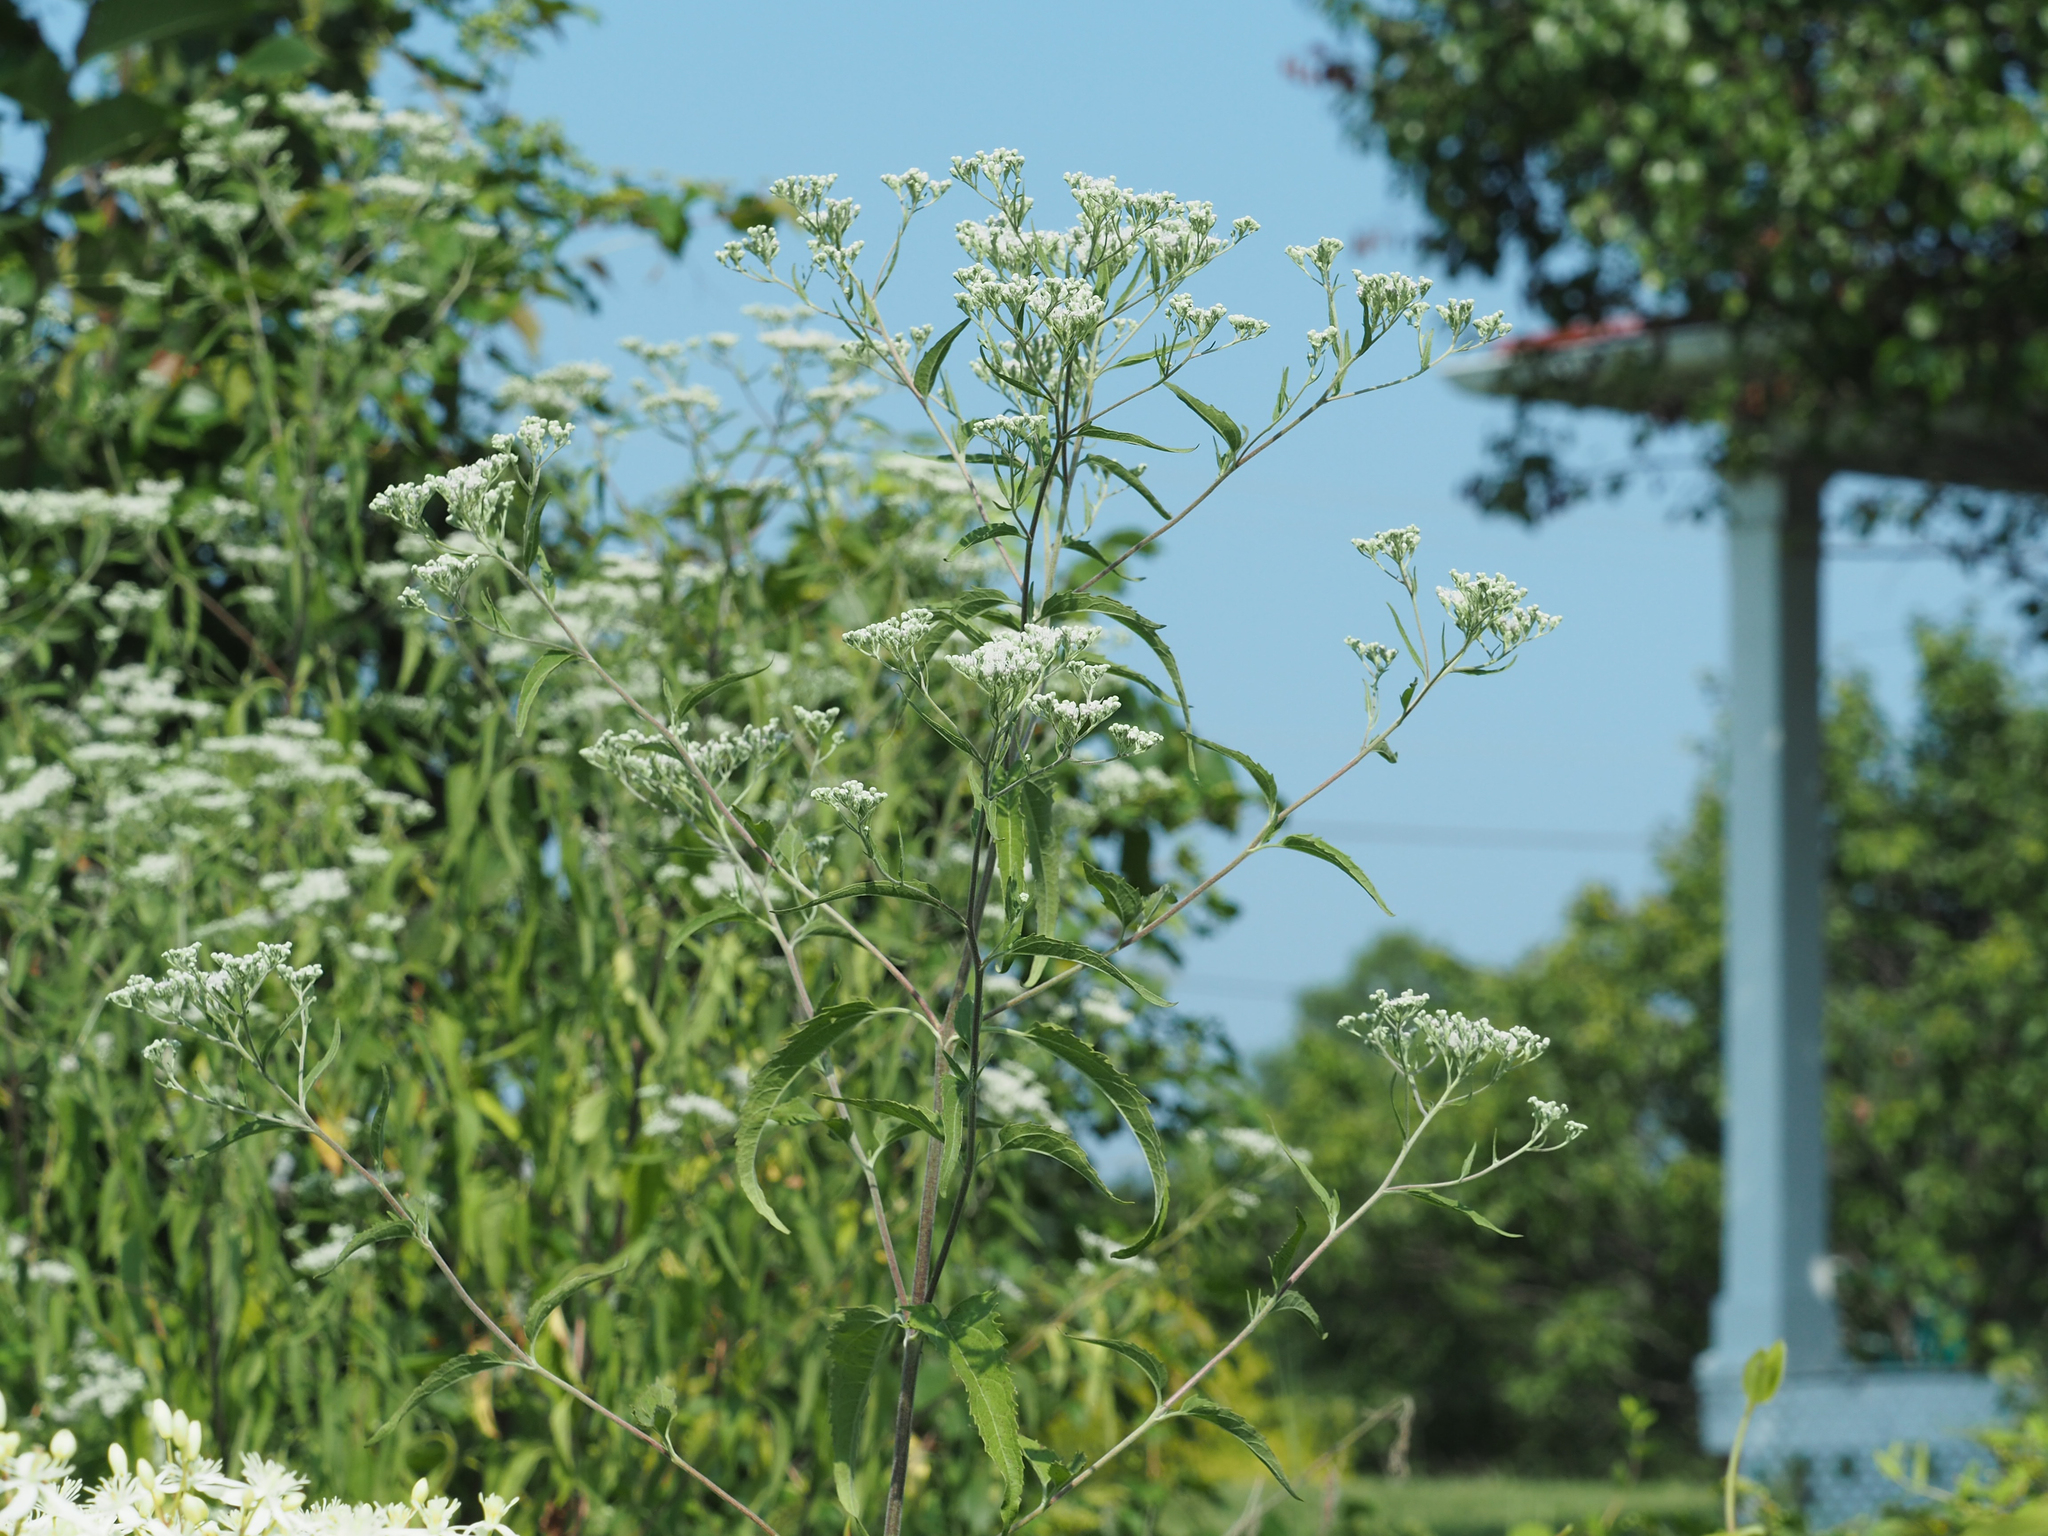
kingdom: Plantae
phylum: Tracheophyta
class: Magnoliopsida
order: Asterales
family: Asteraceae
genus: Eupatorium
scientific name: Eupatorium serotinum
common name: Late boneset
